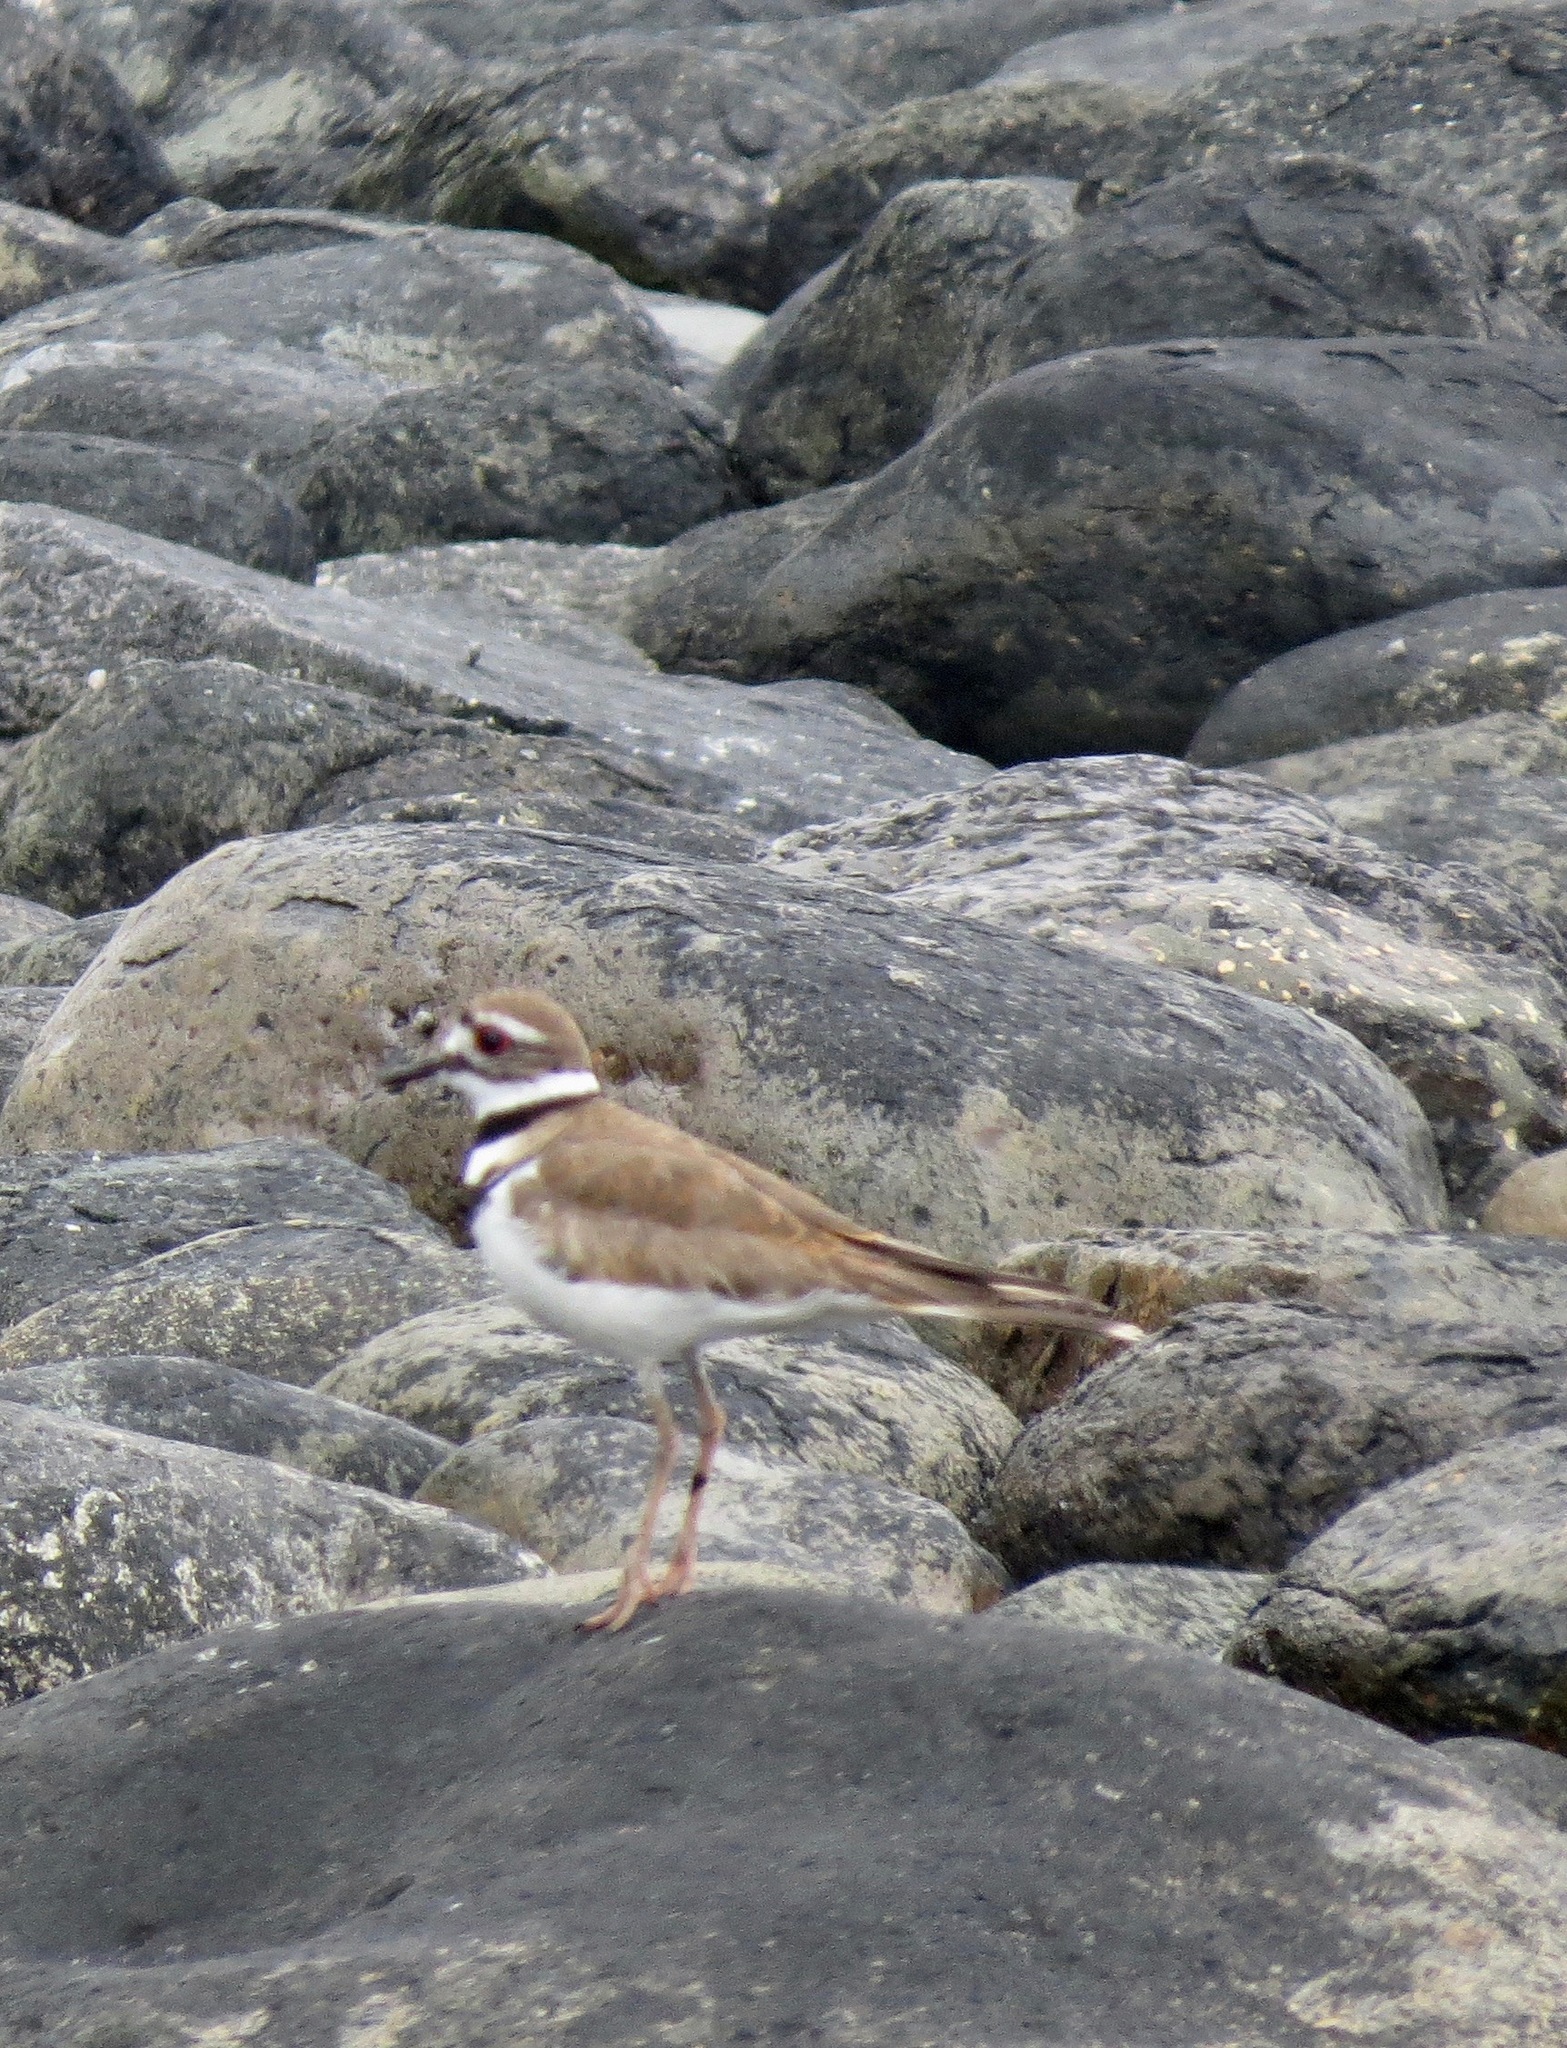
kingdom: Animalia
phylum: Chordata
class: Aves
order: Charadriiformes
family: Charadriidae
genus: Charadrius
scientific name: Charadrius vociferus
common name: Killdeer
